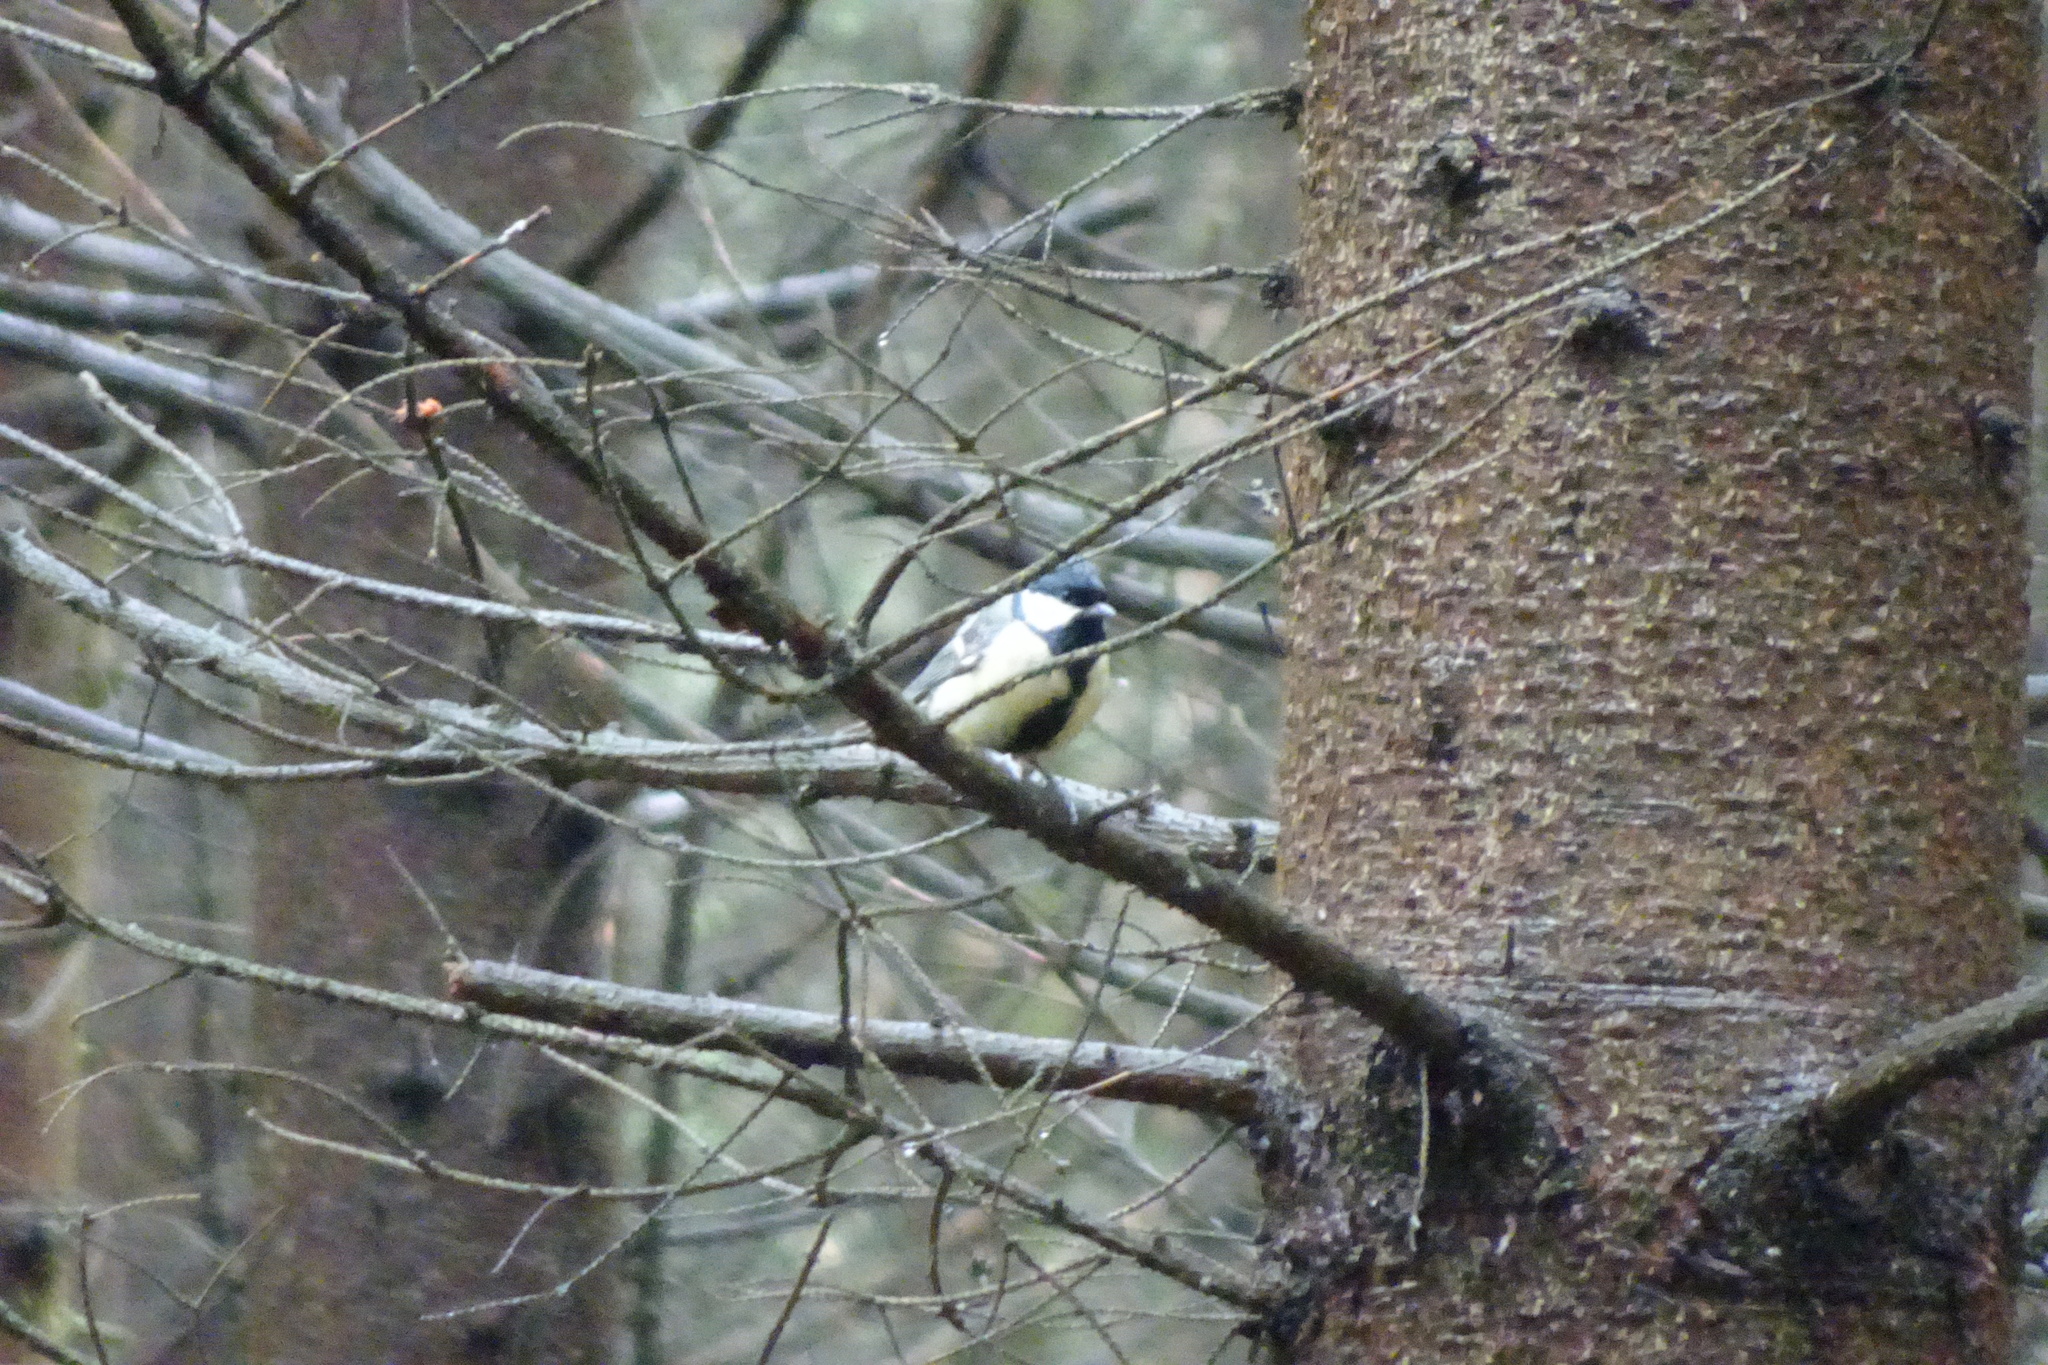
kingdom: Animalia
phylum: Chordata
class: Aves
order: Passeriformes
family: Paridae
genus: Parus
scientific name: Parus major
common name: Great tit
